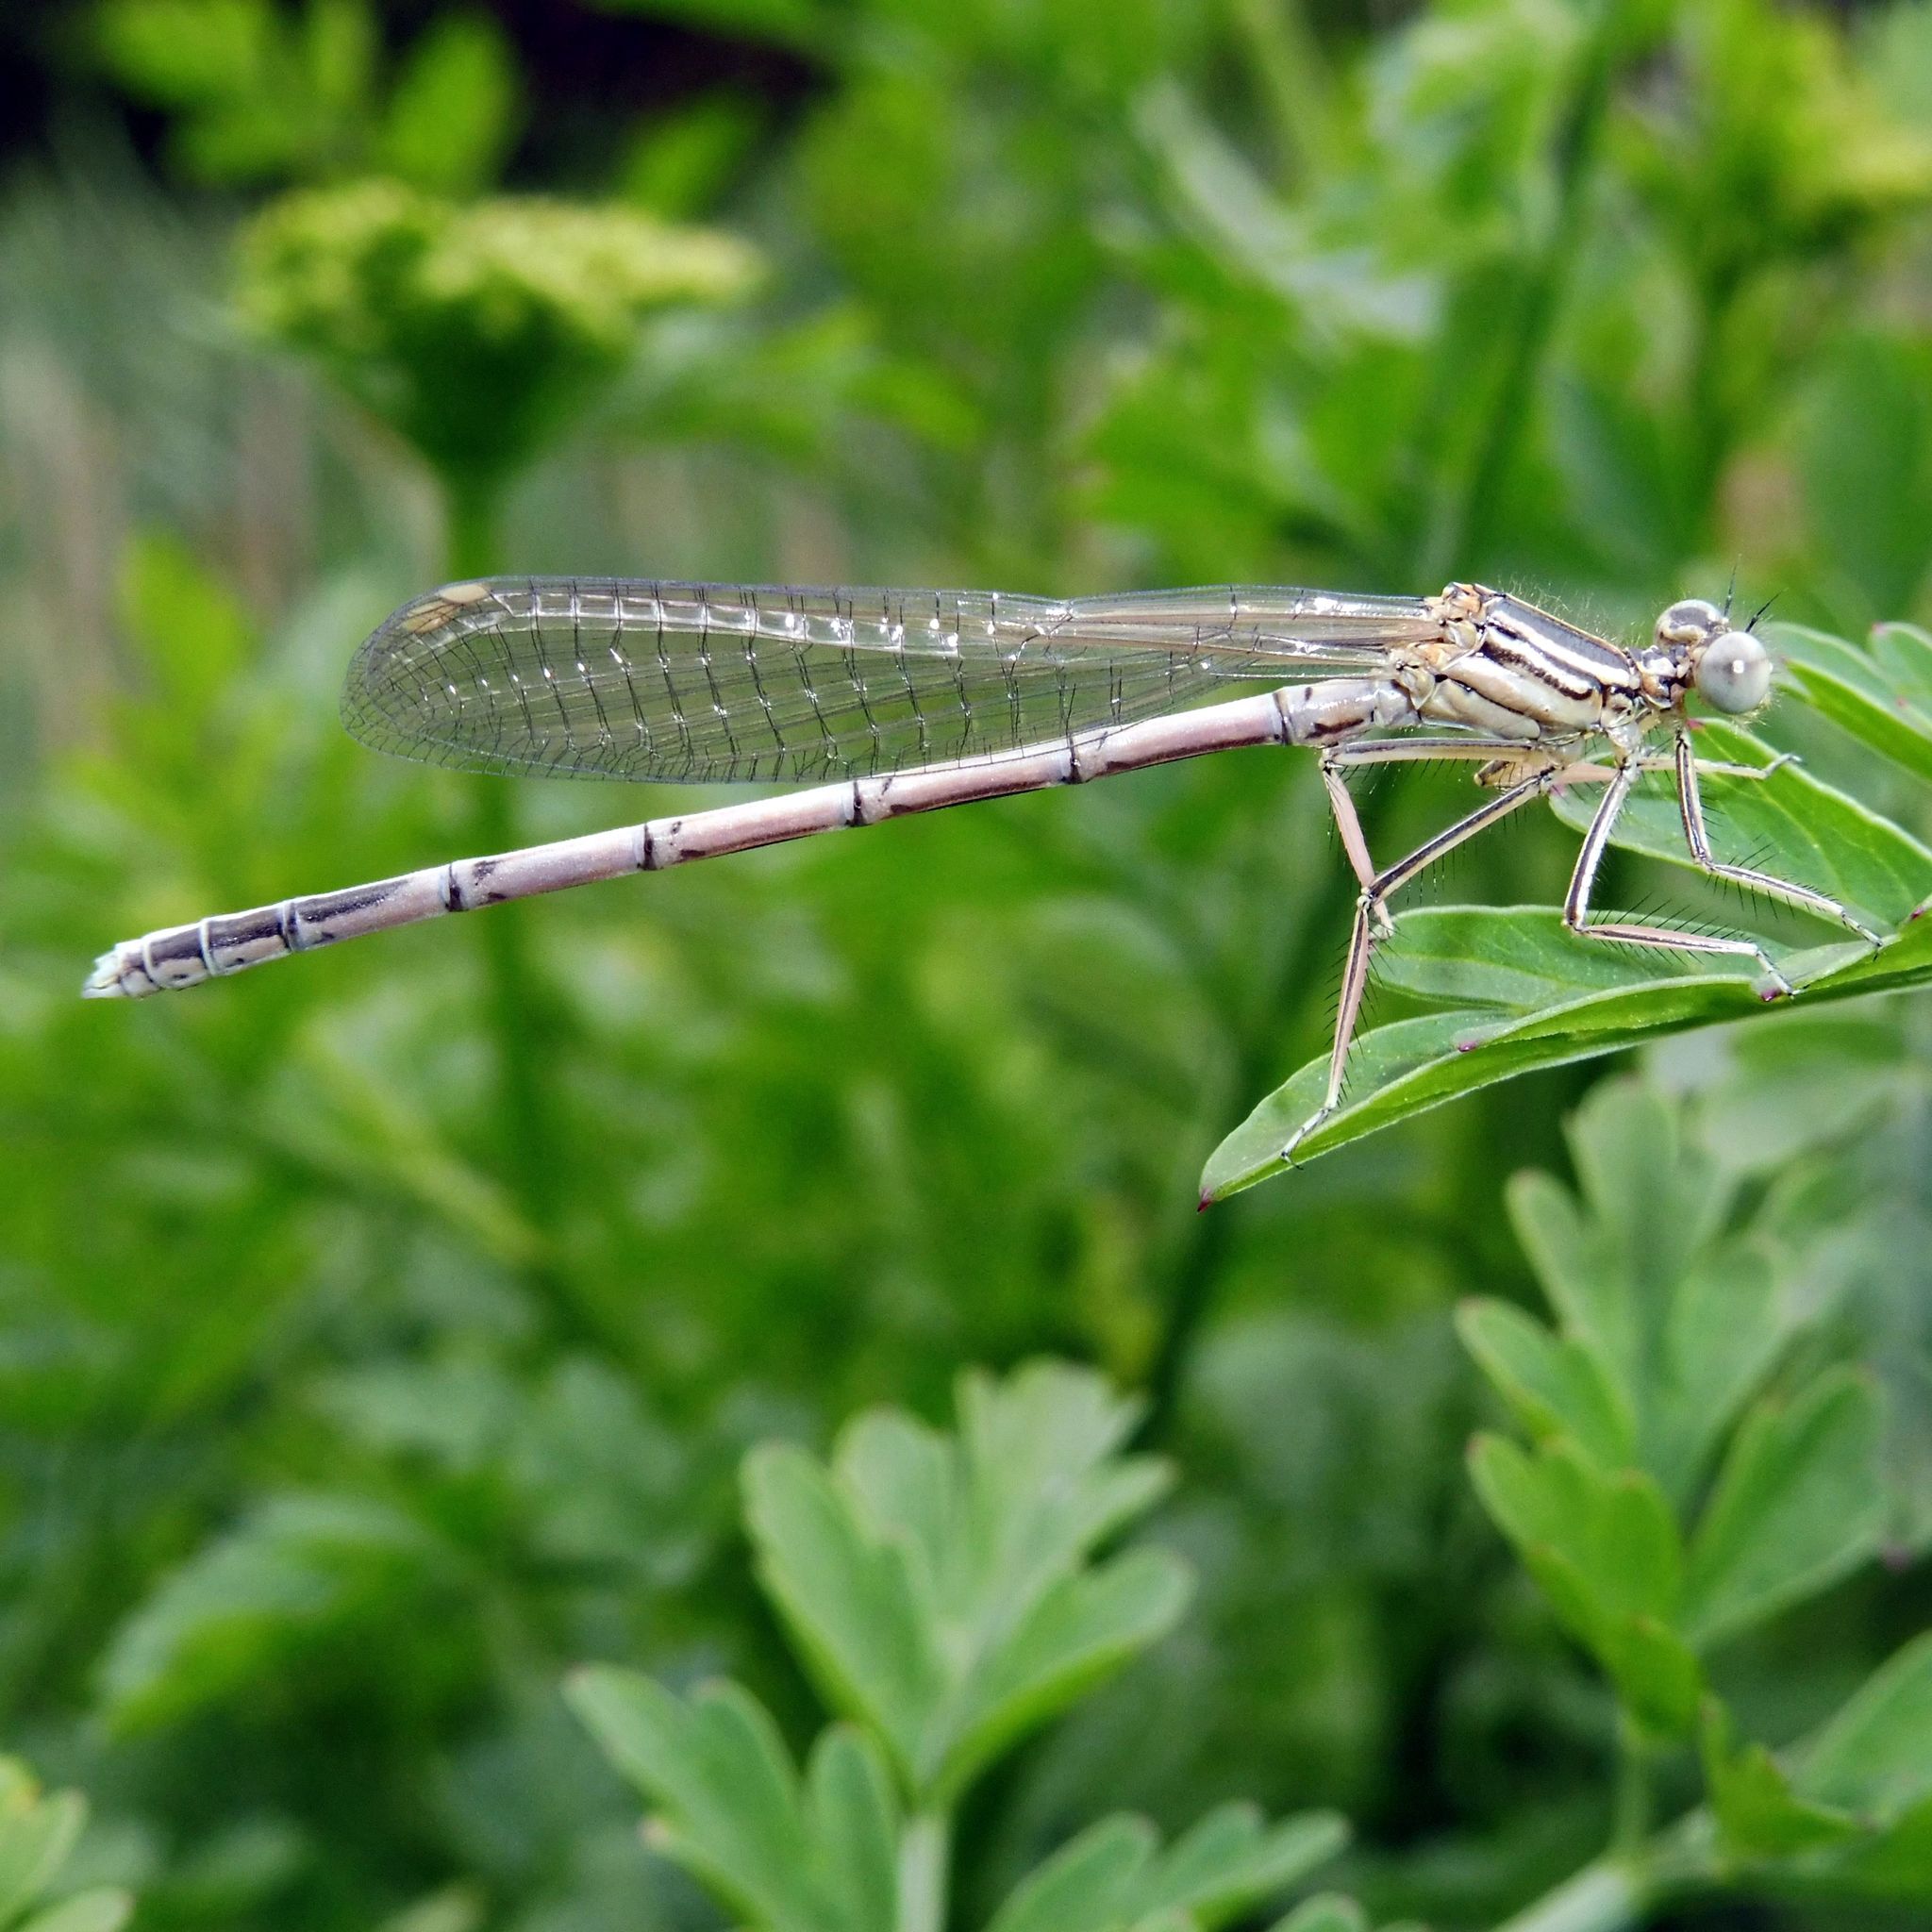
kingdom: Animalia
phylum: Arthropoda
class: Insecta
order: Odonata
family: Platycnemididae
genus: Platycnemis
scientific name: Platycnemis pennipes
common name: White-legged damselfly
